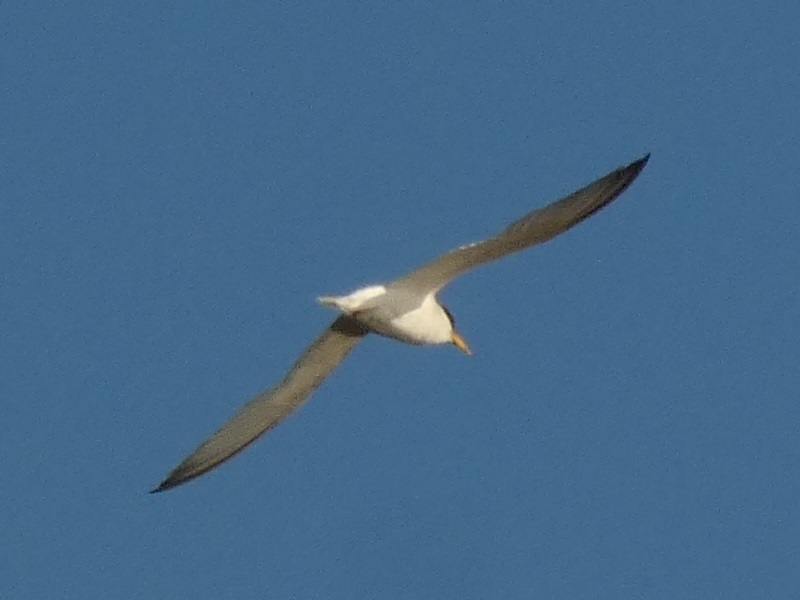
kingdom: Animalia
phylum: Chordata
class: Aves
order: Charadriiformes
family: Laridae
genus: Sternula
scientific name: Sternula albifrons
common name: Little tern
